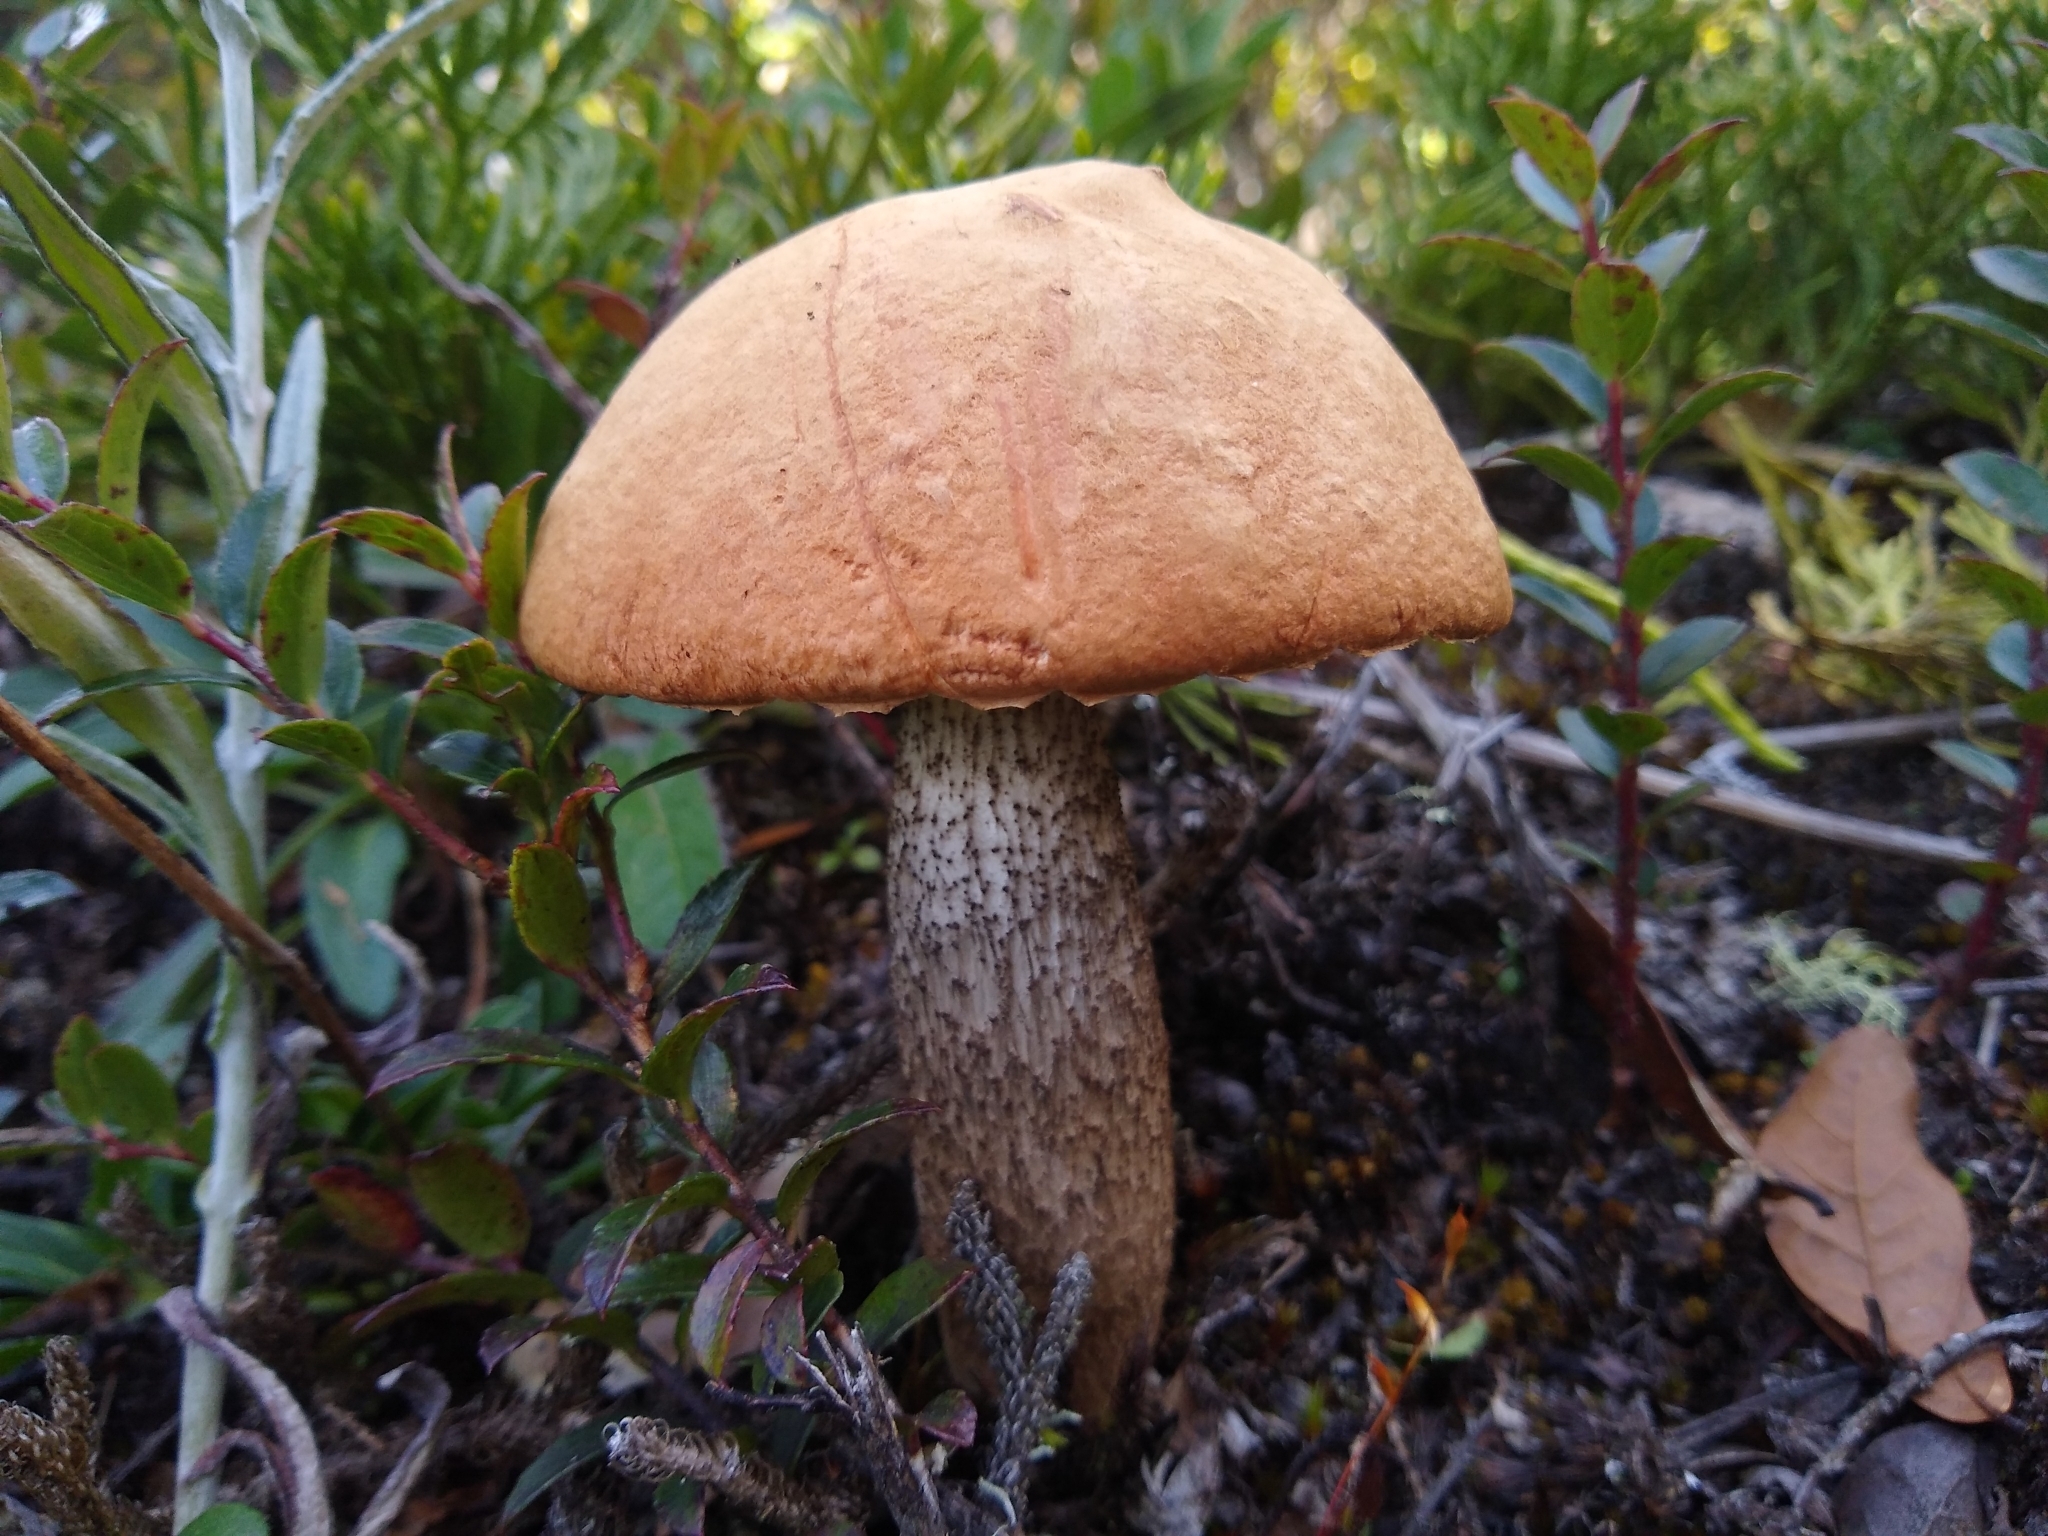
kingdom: Fungi
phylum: Basidiomycota
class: Agaricomycetes
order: Boletales
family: Boletaceae
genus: Leccinum
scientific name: Leccinum monticola
